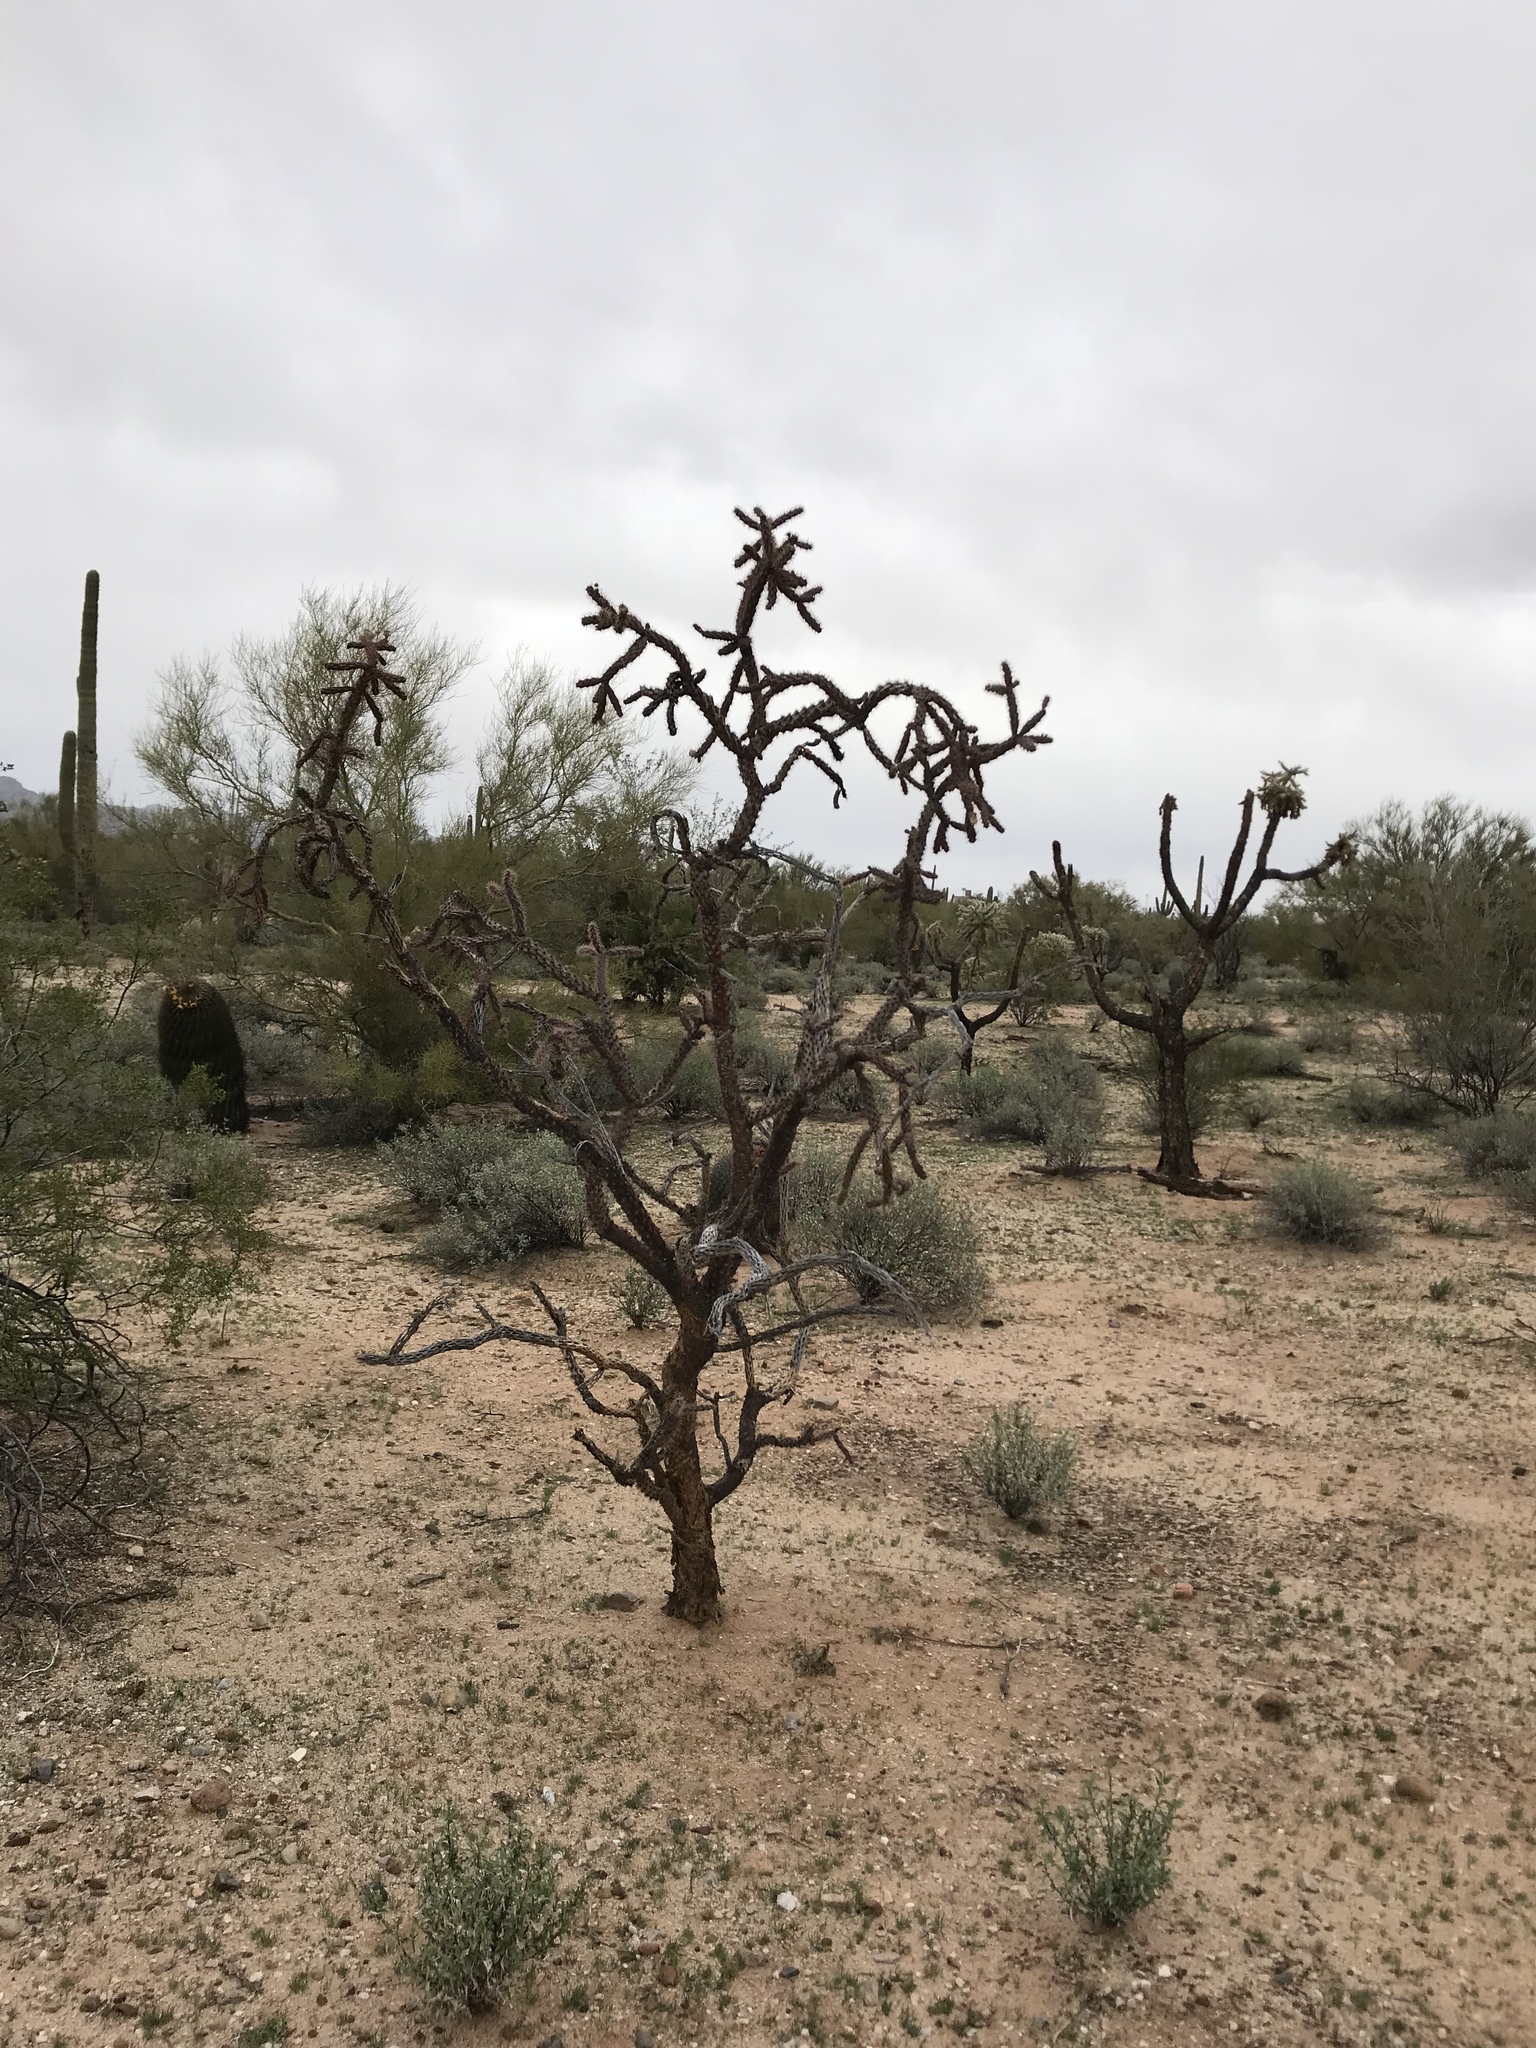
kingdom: Plantae
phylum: Tracheophyta
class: Magnoliopsida
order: Caryophyllales
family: Cactaceae
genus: Cylindropuntia
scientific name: Cylindropuntia thurberi
